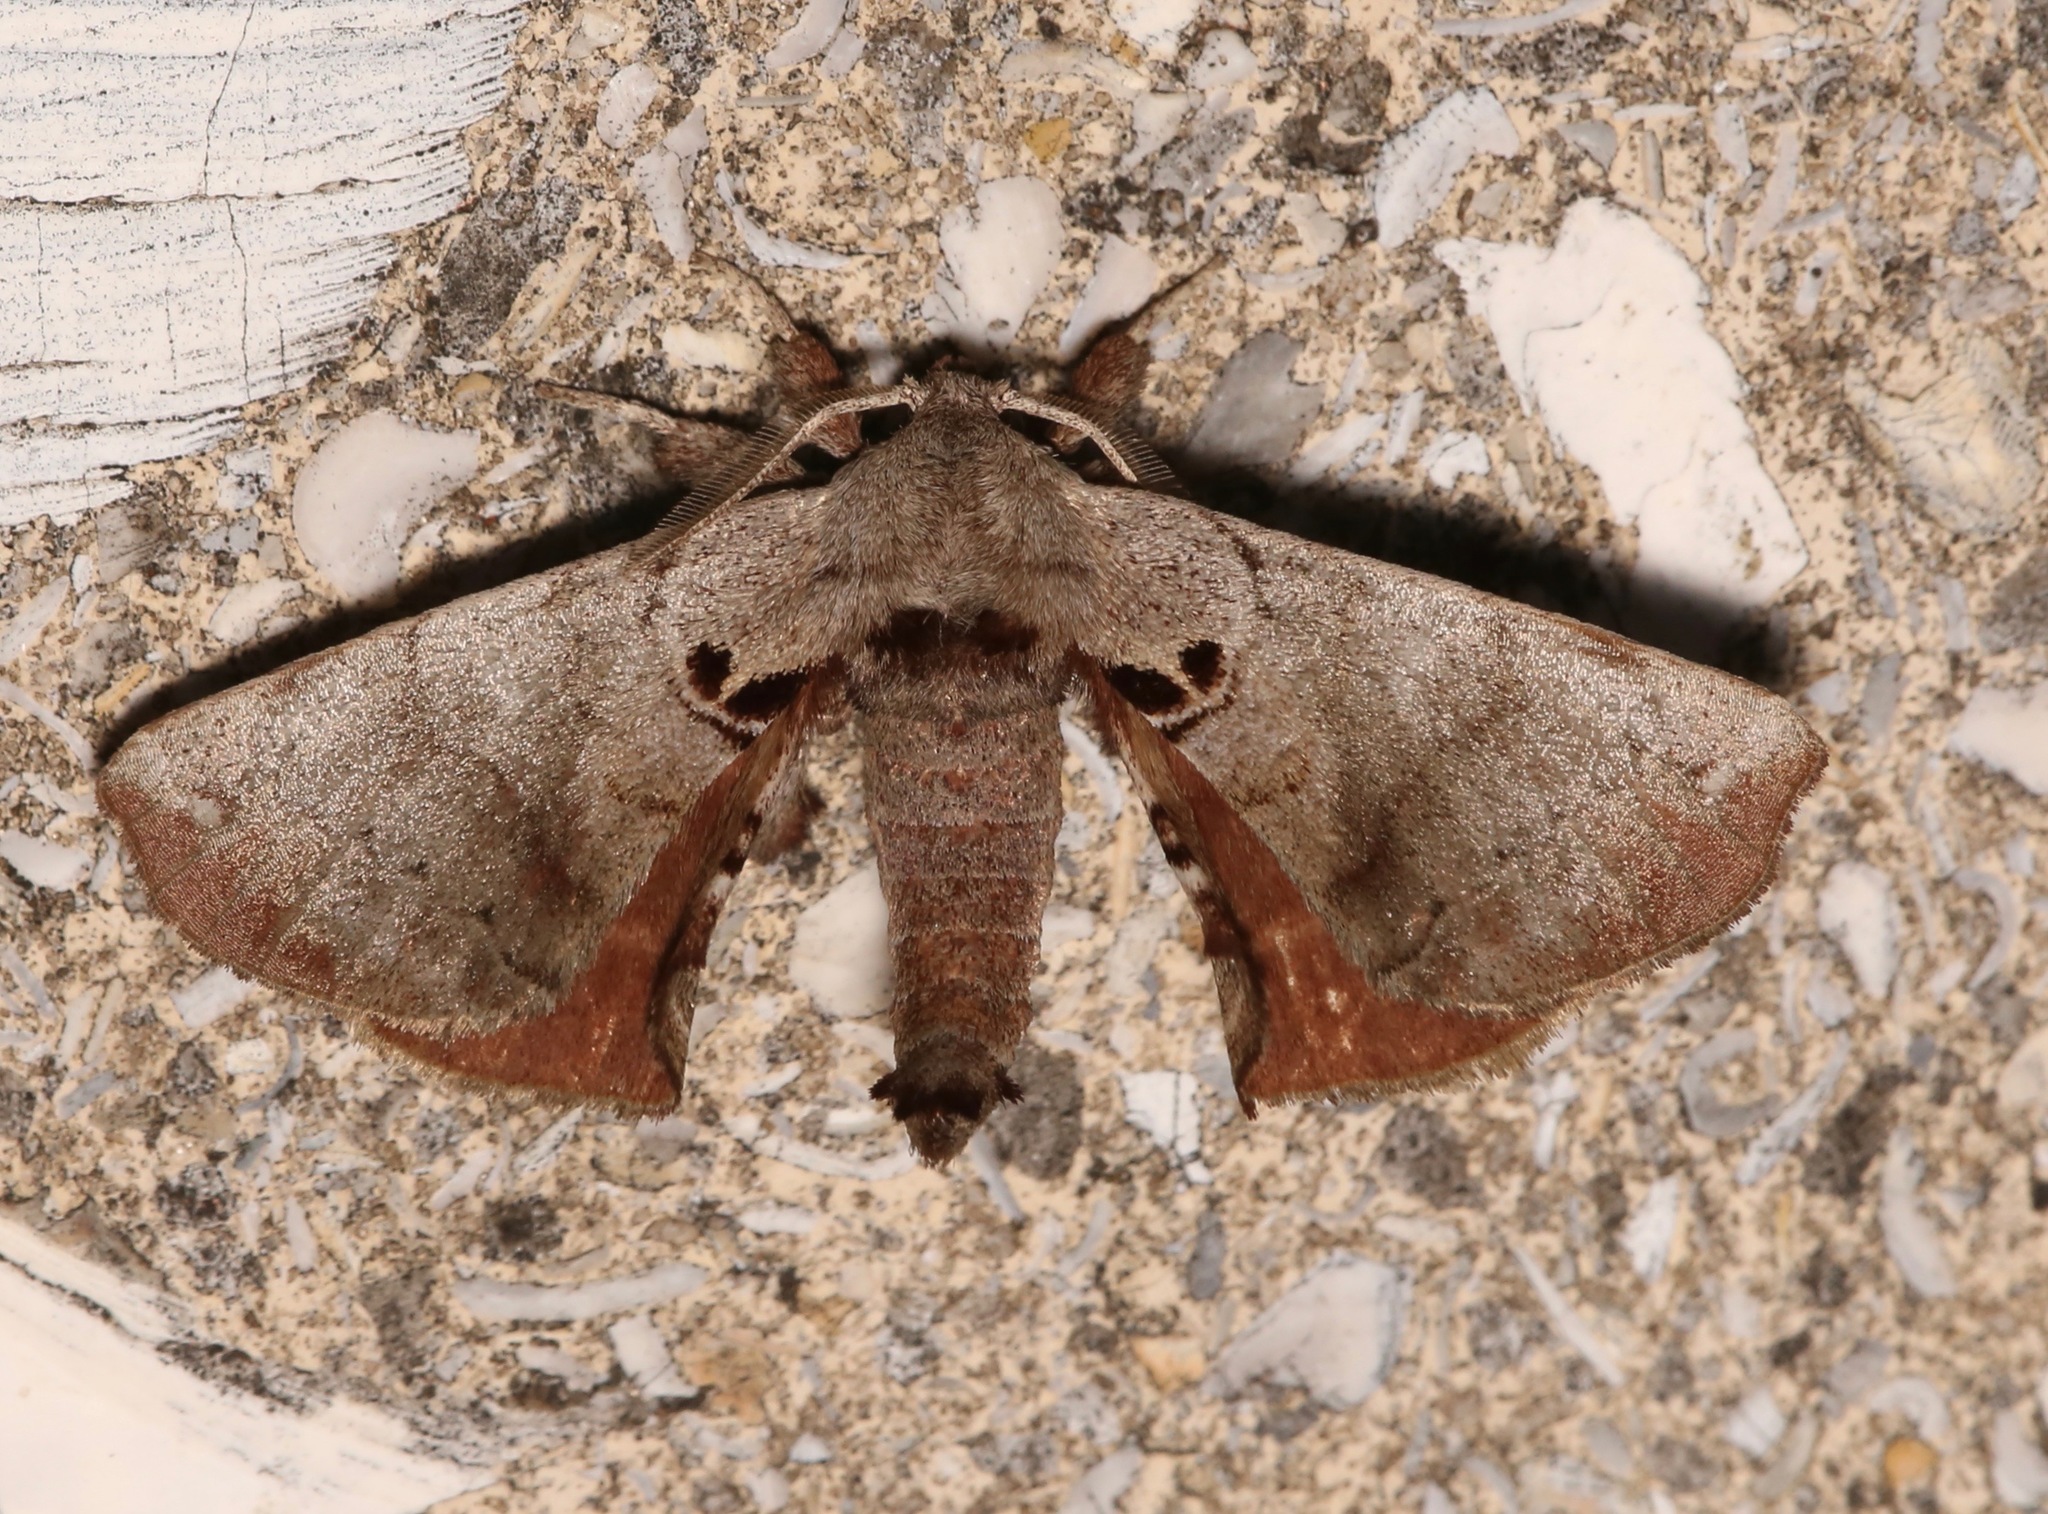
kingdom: Animalia
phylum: Arthropoda
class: Insecta
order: Lepidoptera
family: Apatelodidae
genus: Hygrochroa
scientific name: Hygrochroa Apatelodes torrefacta
